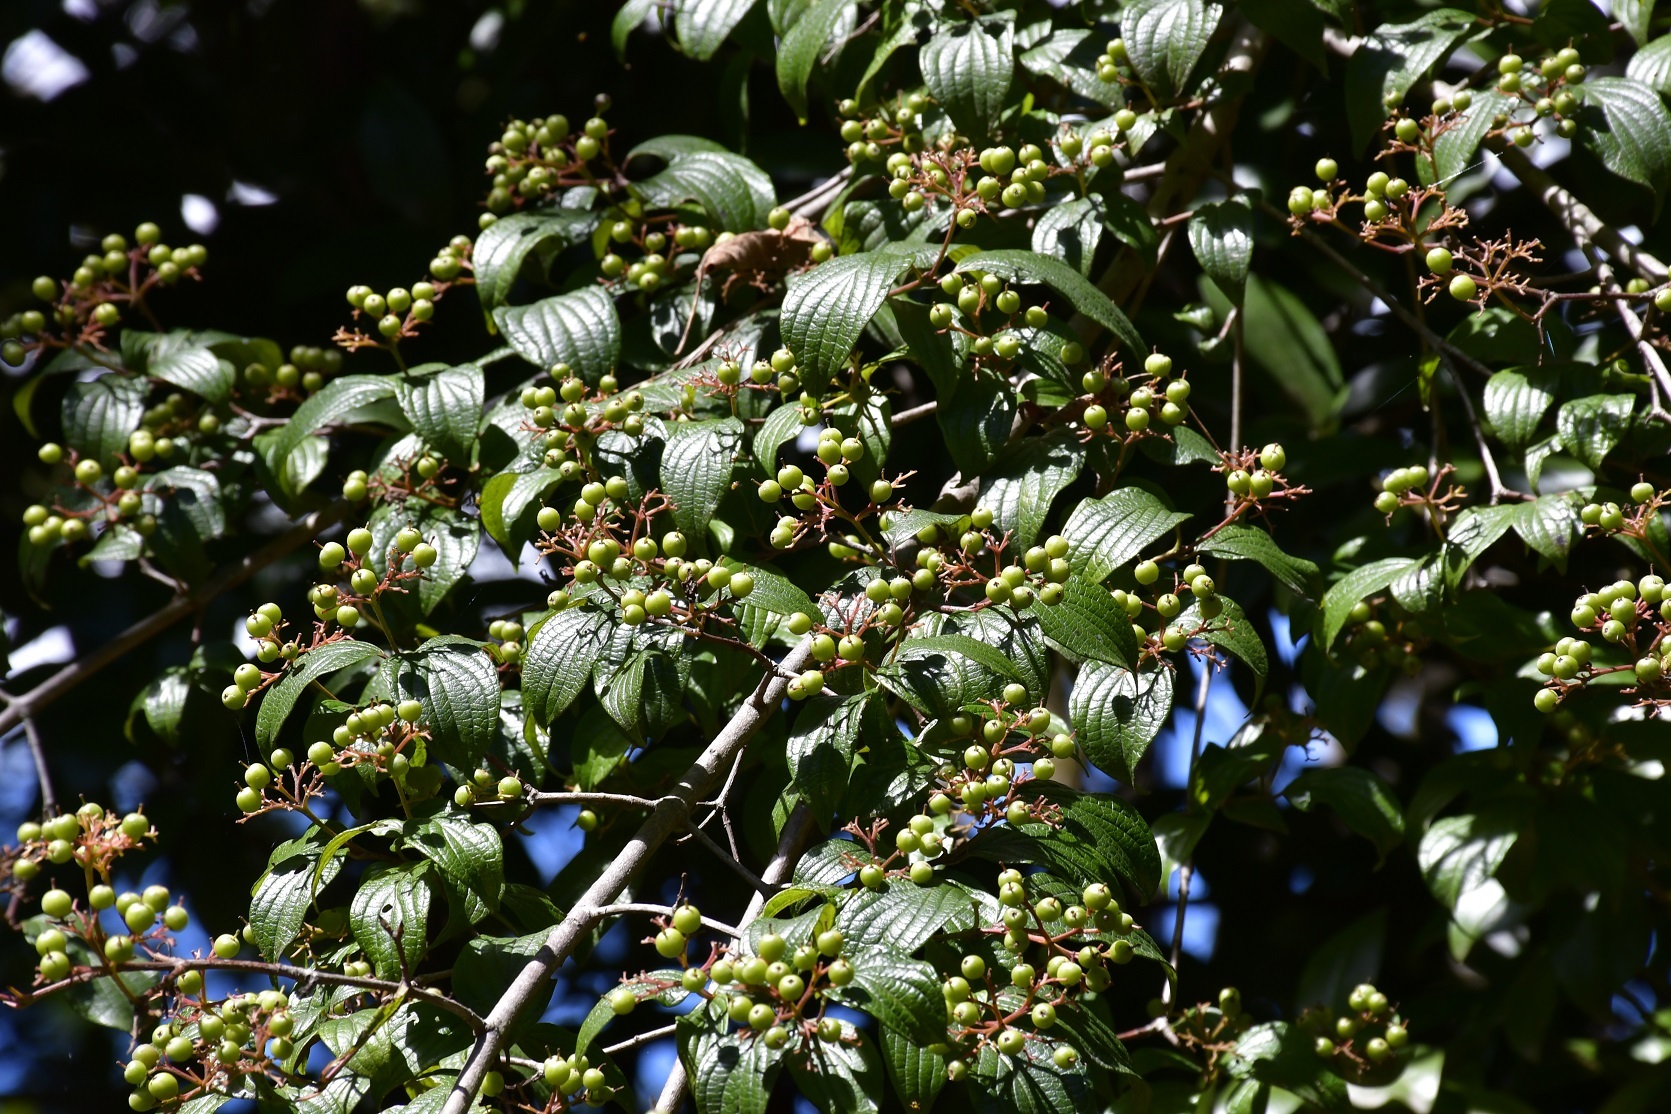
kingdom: Plantae
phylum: Tracheophyta
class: Magnoliopsida
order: Cornales
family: Cornaceae
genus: Cornus
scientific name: Cornus excelsa
